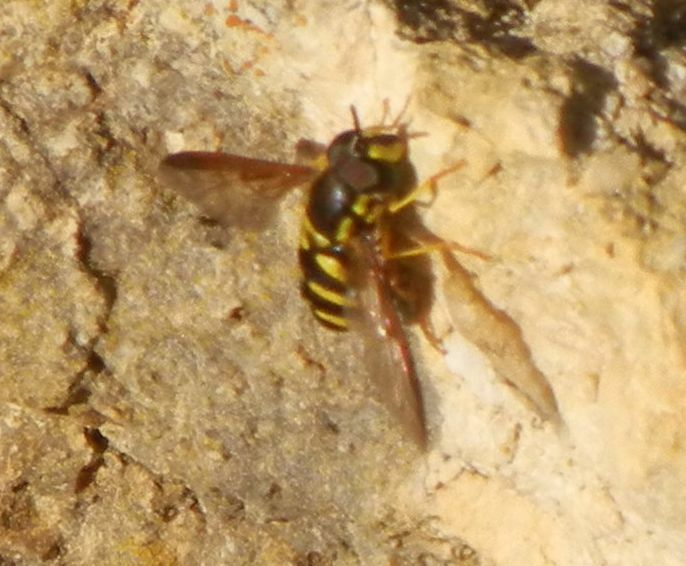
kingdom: Animalia
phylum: Arthropoda
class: Insecta
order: Diptera
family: Syrphidae
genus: Chrysotoxum
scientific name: Chrysotoxum intermedium
